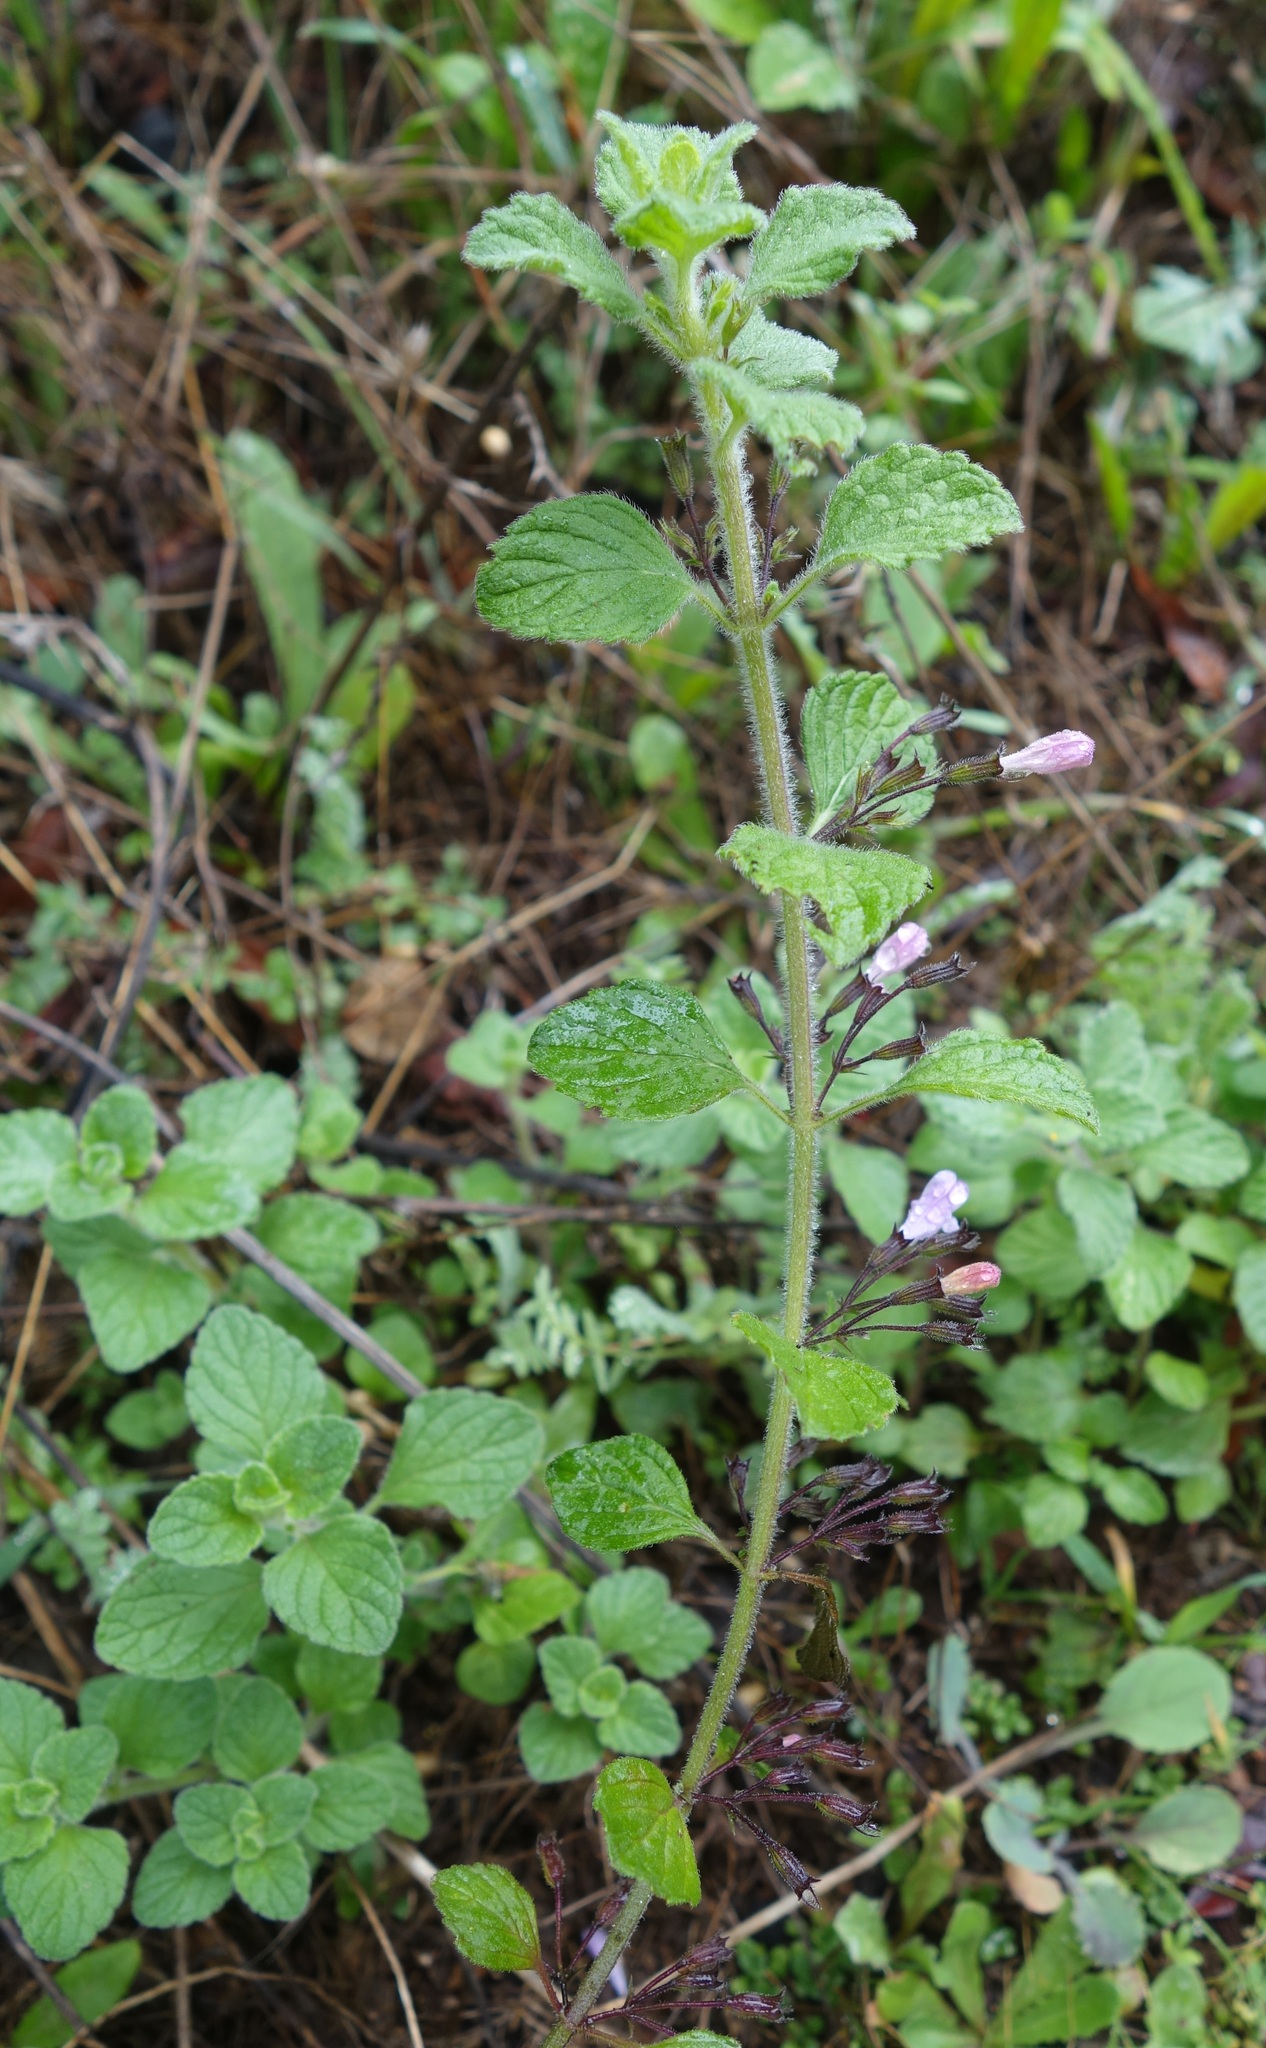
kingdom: Plantae
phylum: Tracheophyta
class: Magnoliopsida
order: Lamiales
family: Lamiaceae
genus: Clinopodium
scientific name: Clinopodium menthifolium
